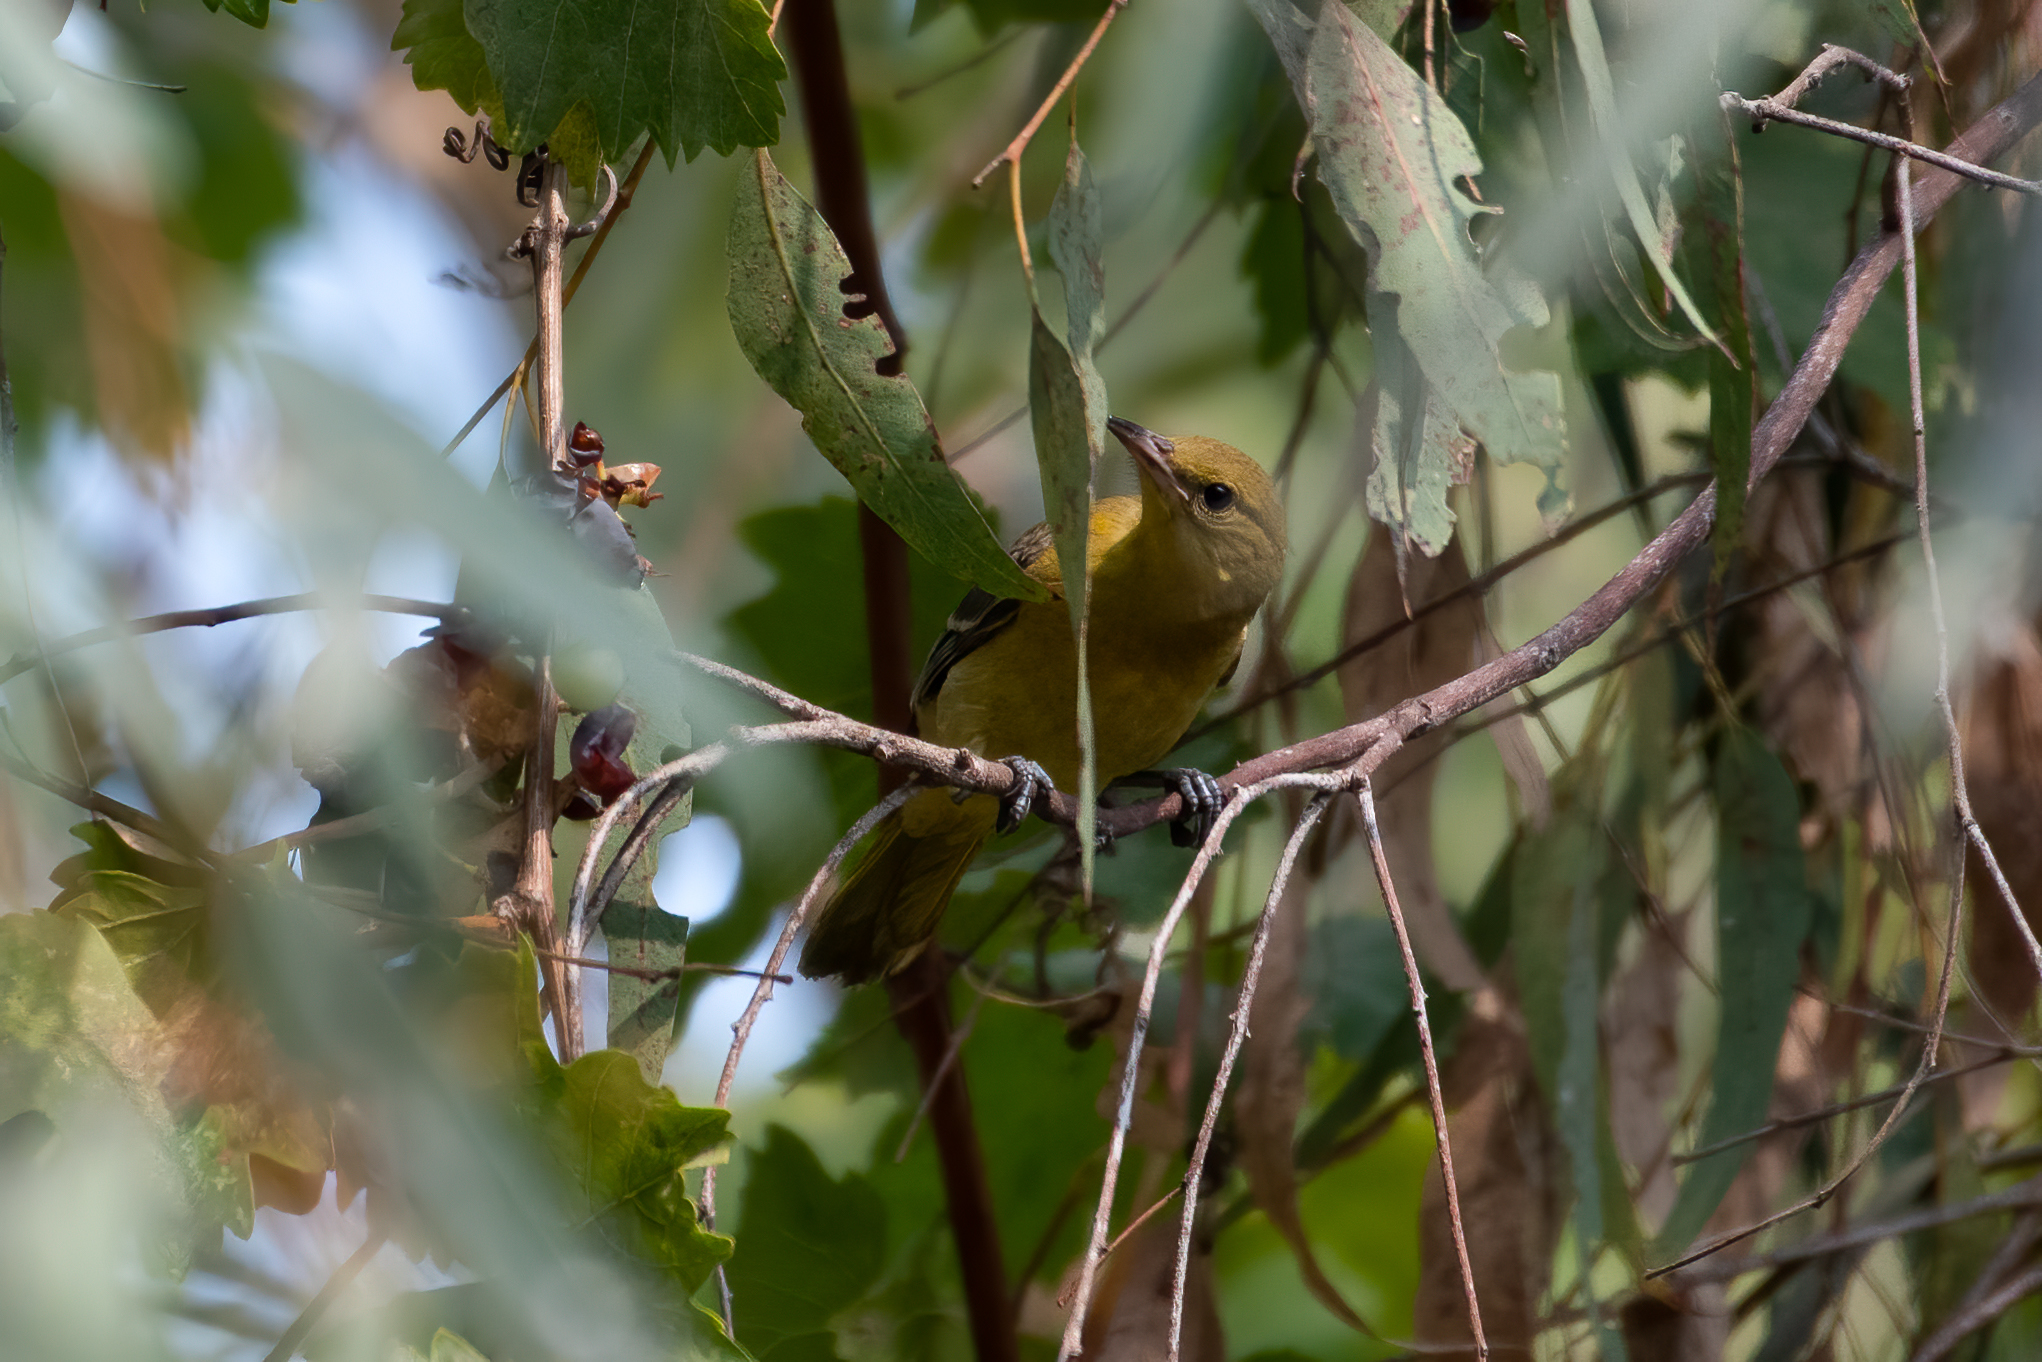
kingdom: Animalia
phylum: Chordata
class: Aves
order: Passeriformes
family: Icteridae
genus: Icterus
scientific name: Icterus cucullatus
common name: Hooded oriole
